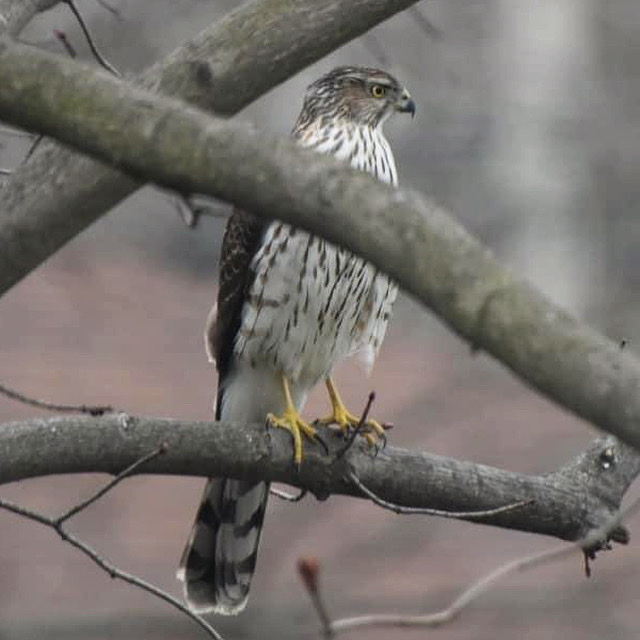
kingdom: Animalia
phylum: Chordata
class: Aves
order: Accipitriformes
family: Accipitridae
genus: Accipiter
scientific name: Accipiter cooperii
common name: Cooper's hawk
